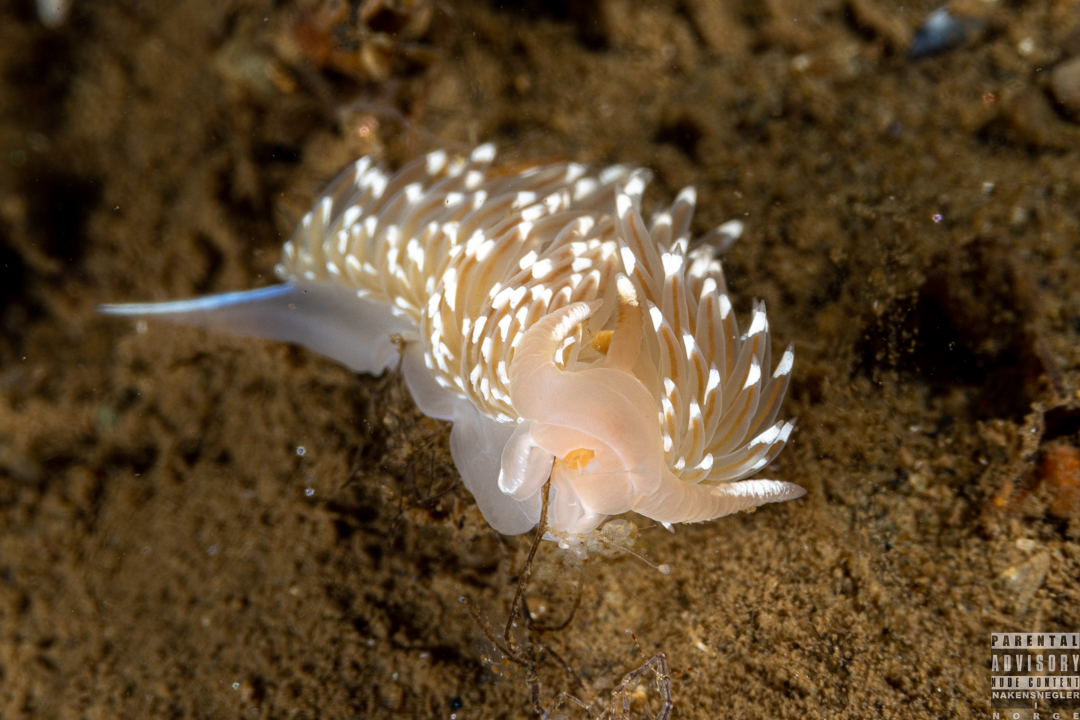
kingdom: Animalia
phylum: Mollusca
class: Gastropoda
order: Nudibranchia
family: Facelinidae
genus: Facelina
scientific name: Facelina bostoniensis
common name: Boston facelina
